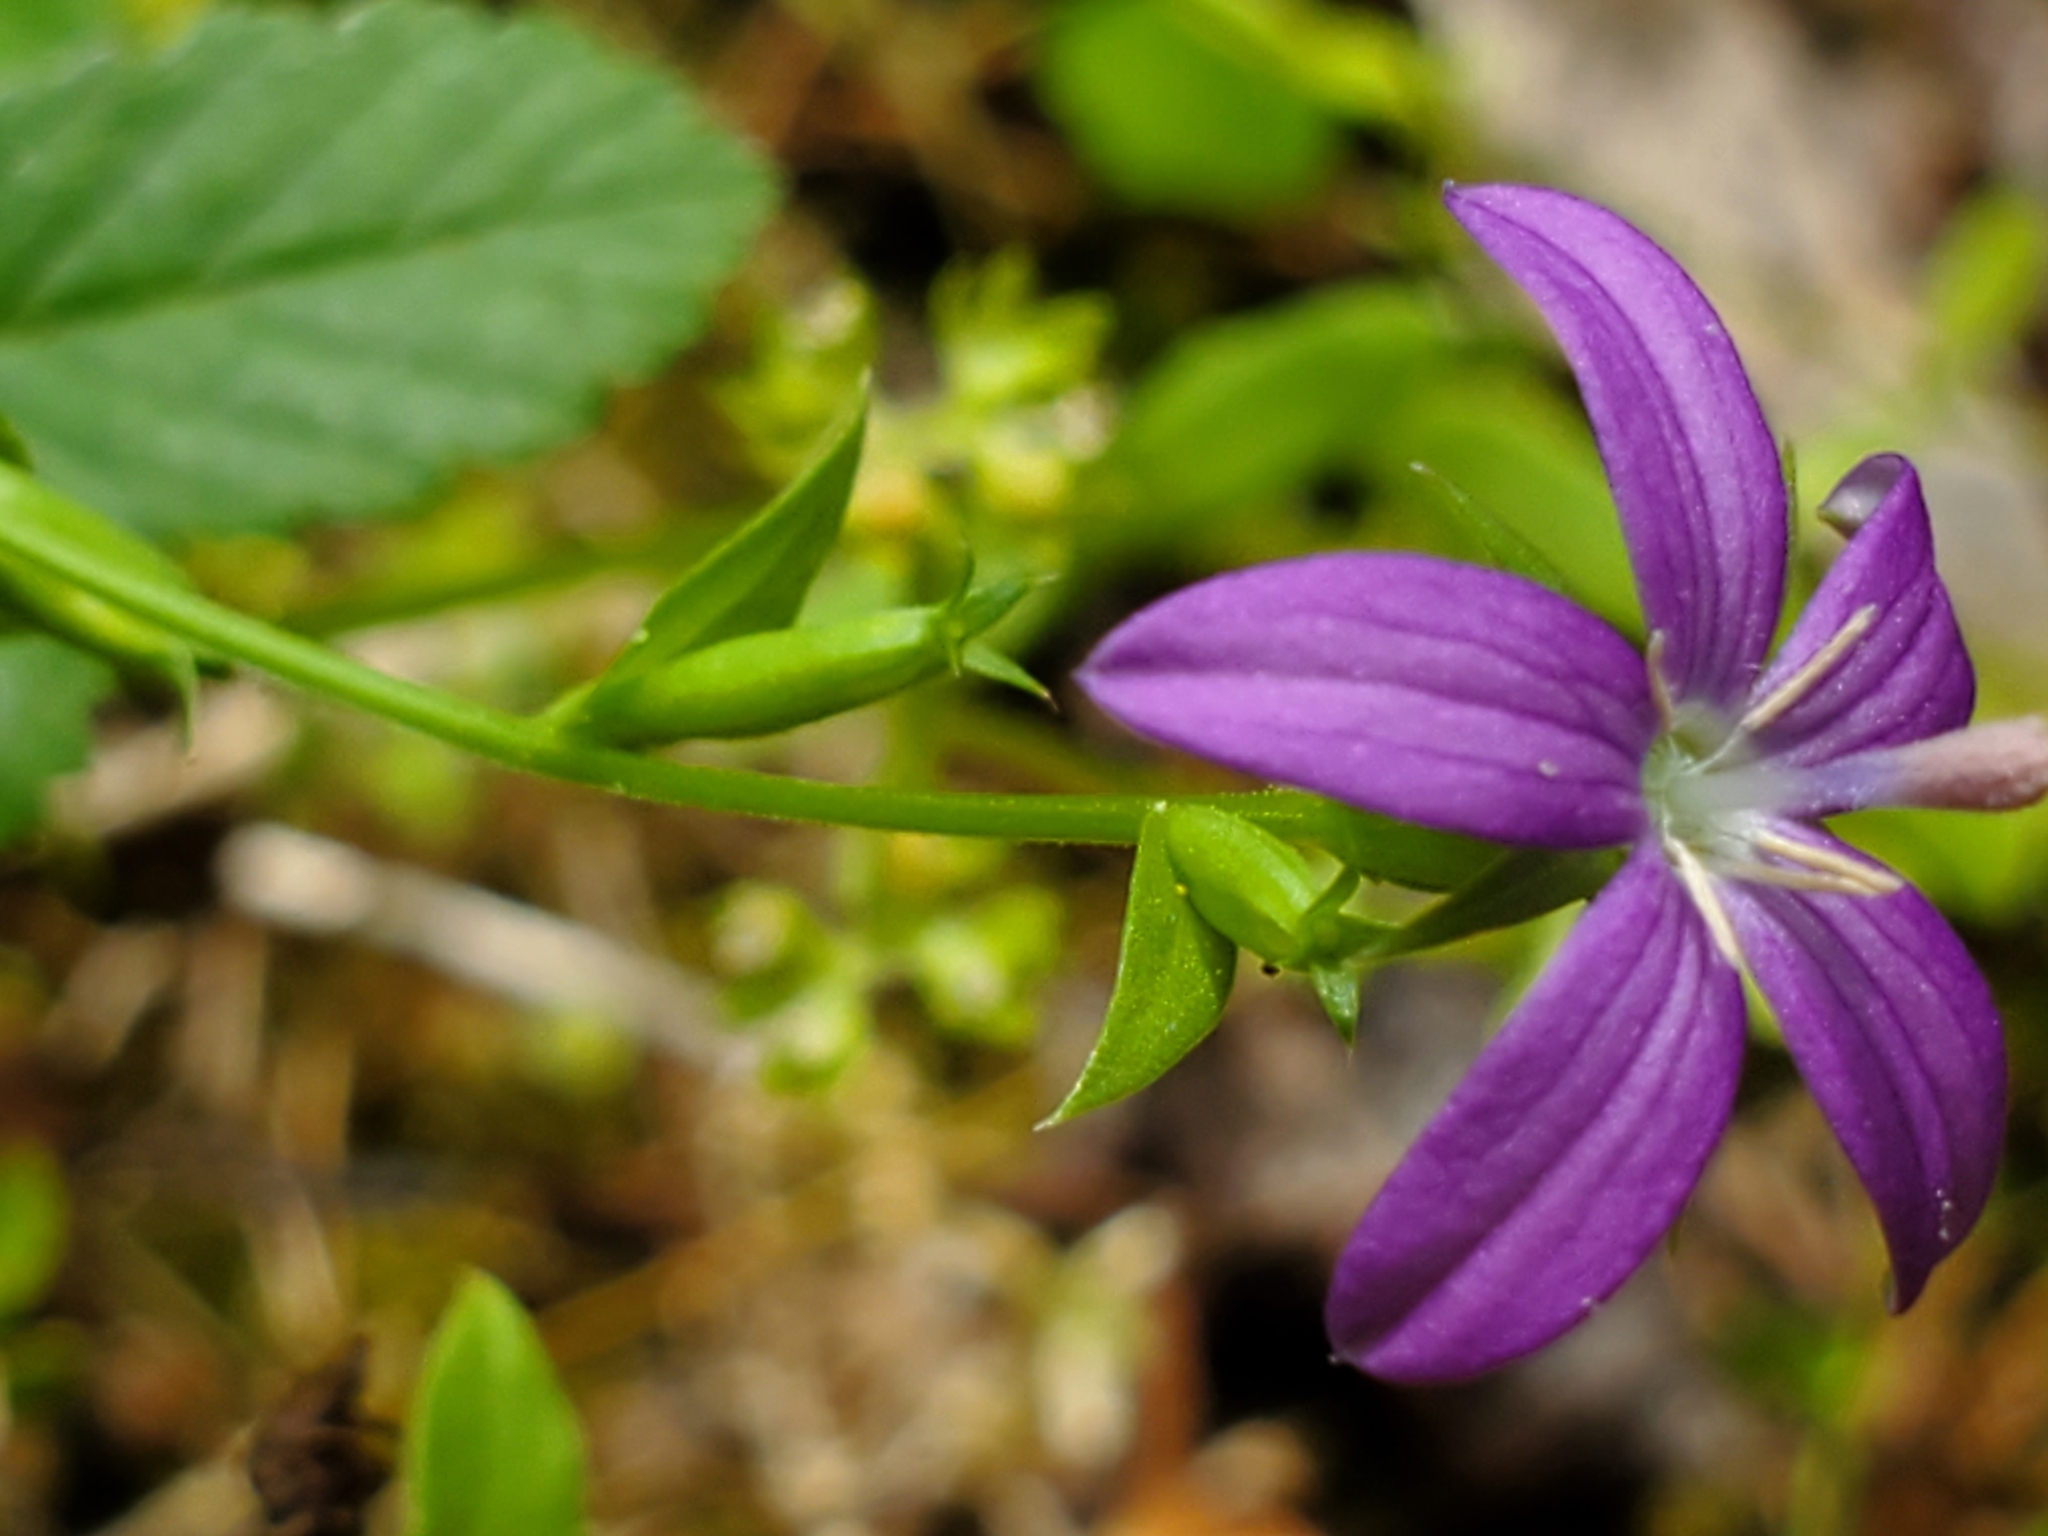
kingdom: Plantae
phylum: Tracheophyta
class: Magnoliopsida
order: Asterales
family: Campanulaceae
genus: Triodanis
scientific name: Triodanis biflora
